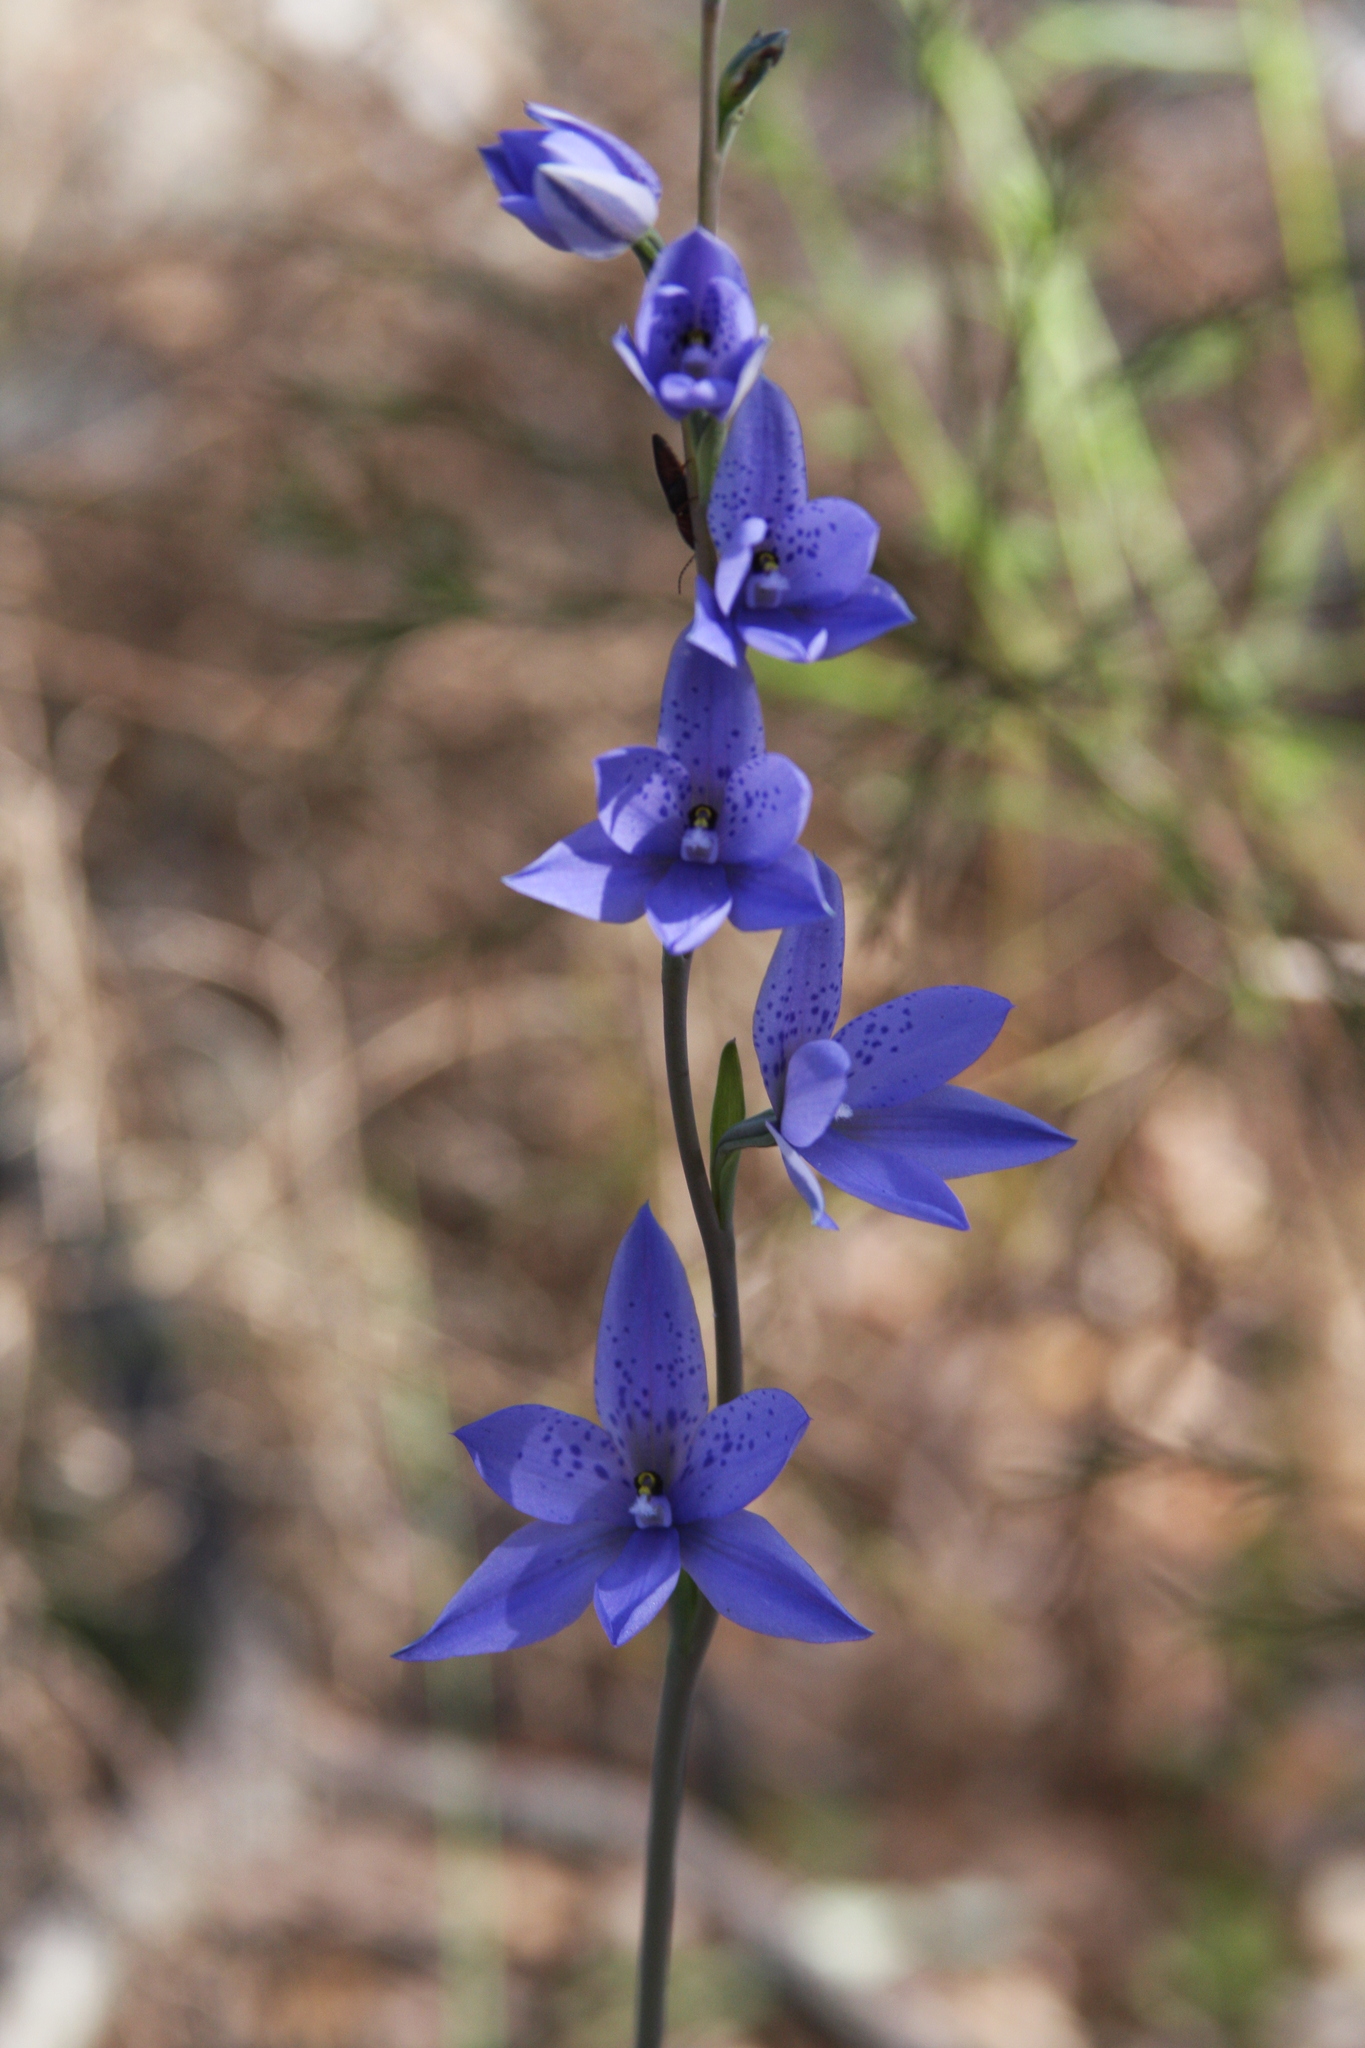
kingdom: Plantae
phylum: Tracheophyta
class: Liliopsida
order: Asparagales
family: Orchidaceae
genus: Thelymitra
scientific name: Thelymitra ixioides
